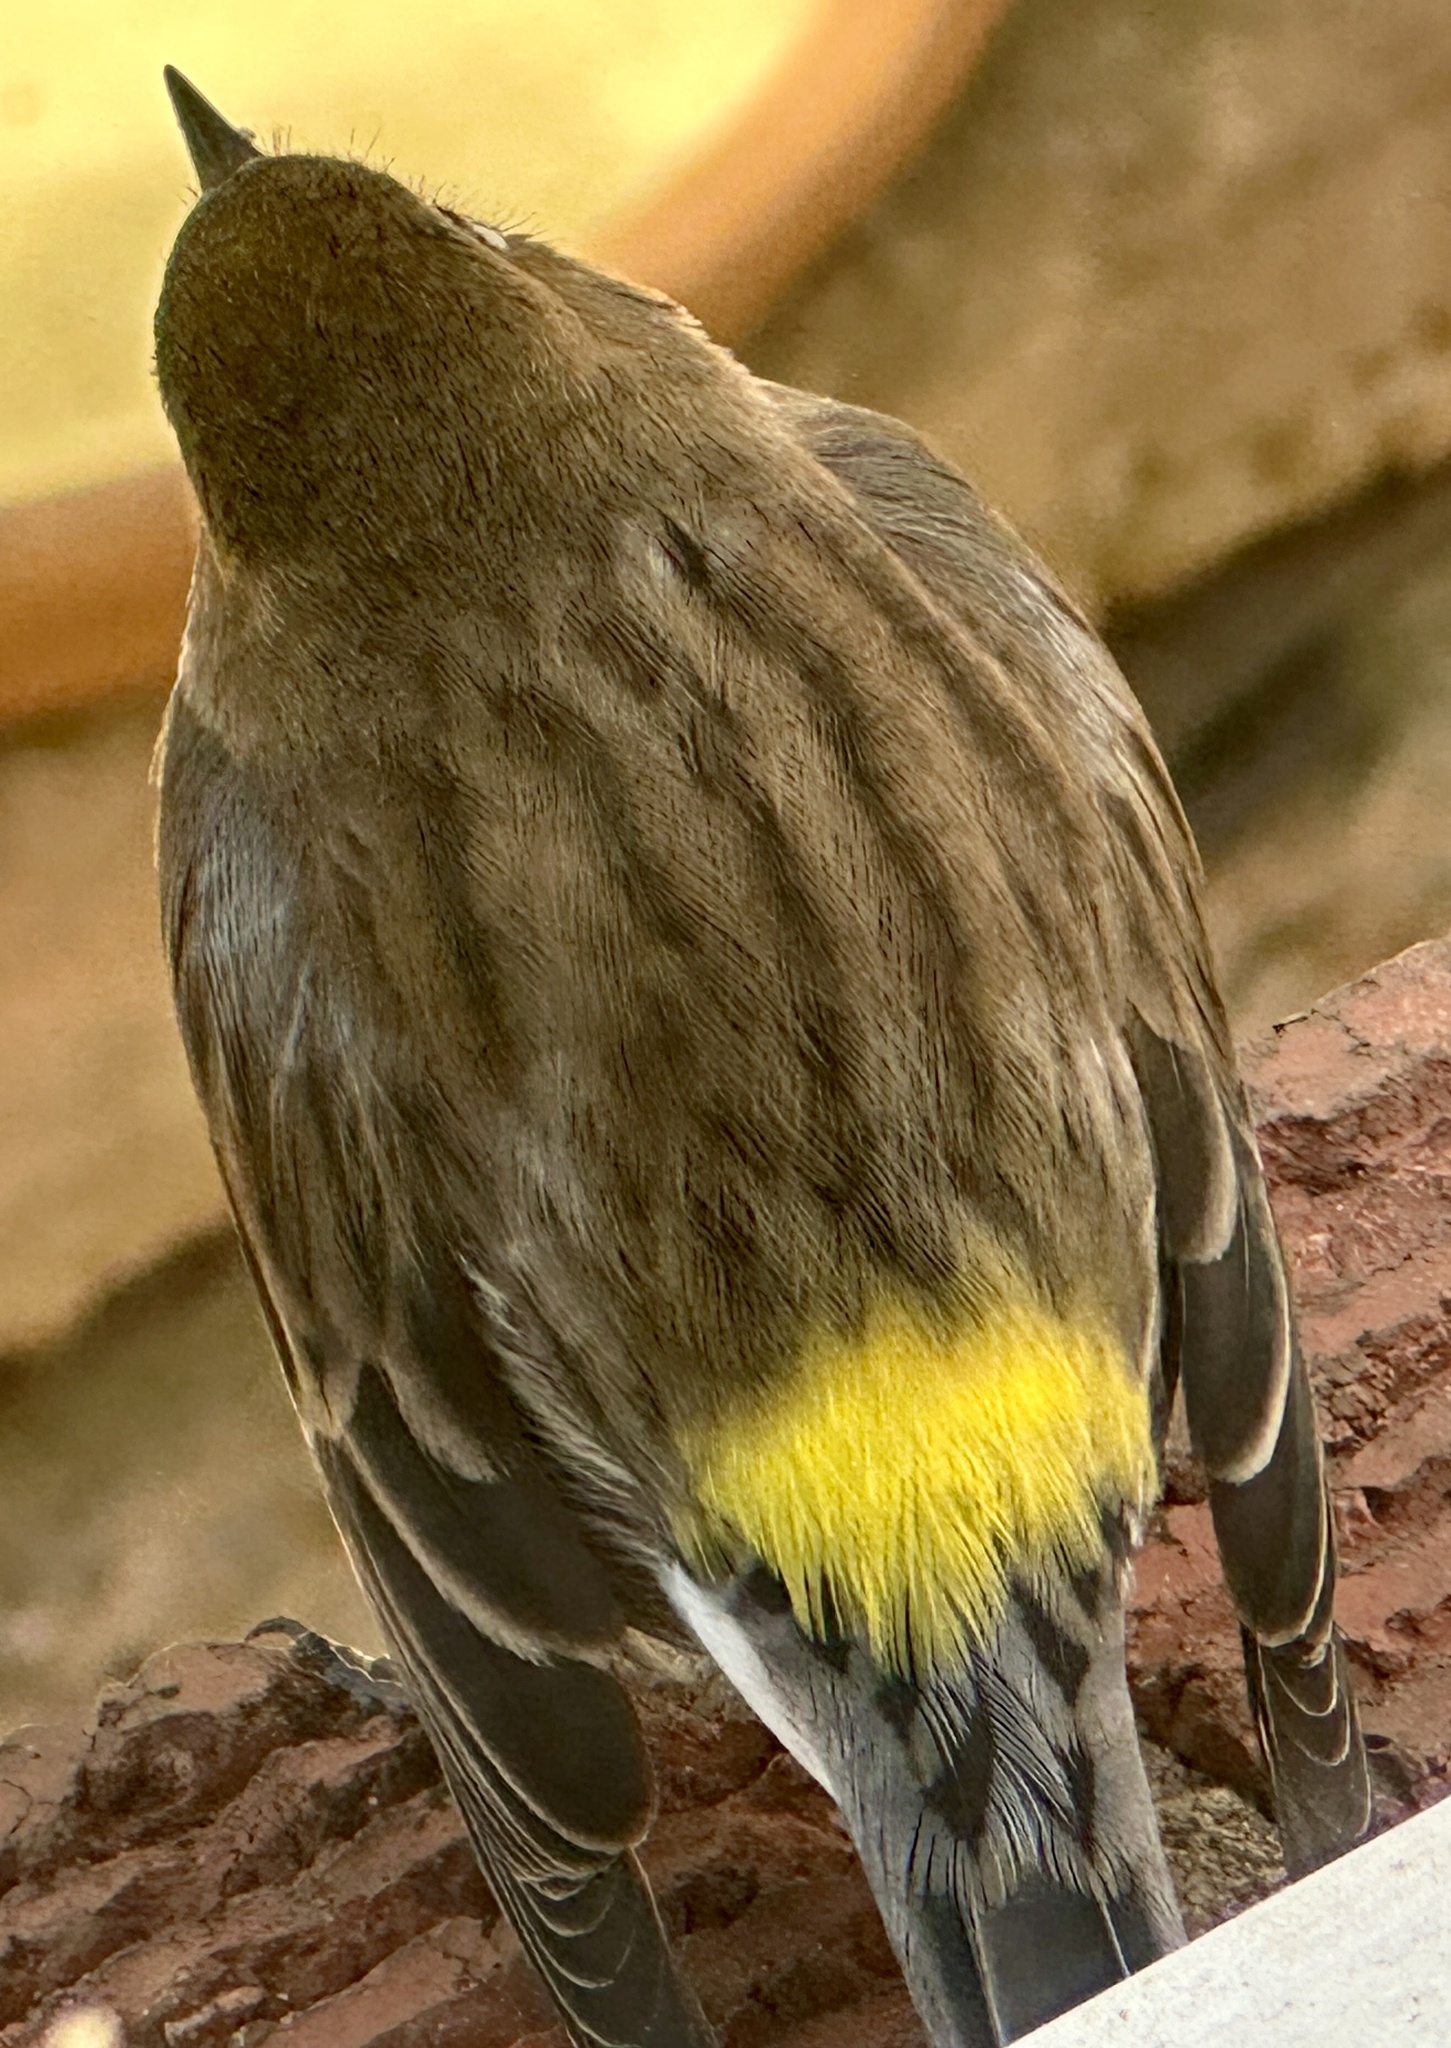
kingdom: Animalia
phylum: Chordata
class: Aves
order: Passeriformes
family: Parulidae
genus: Setophaga
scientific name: Setophaga coronata
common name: Myrtle warbler
